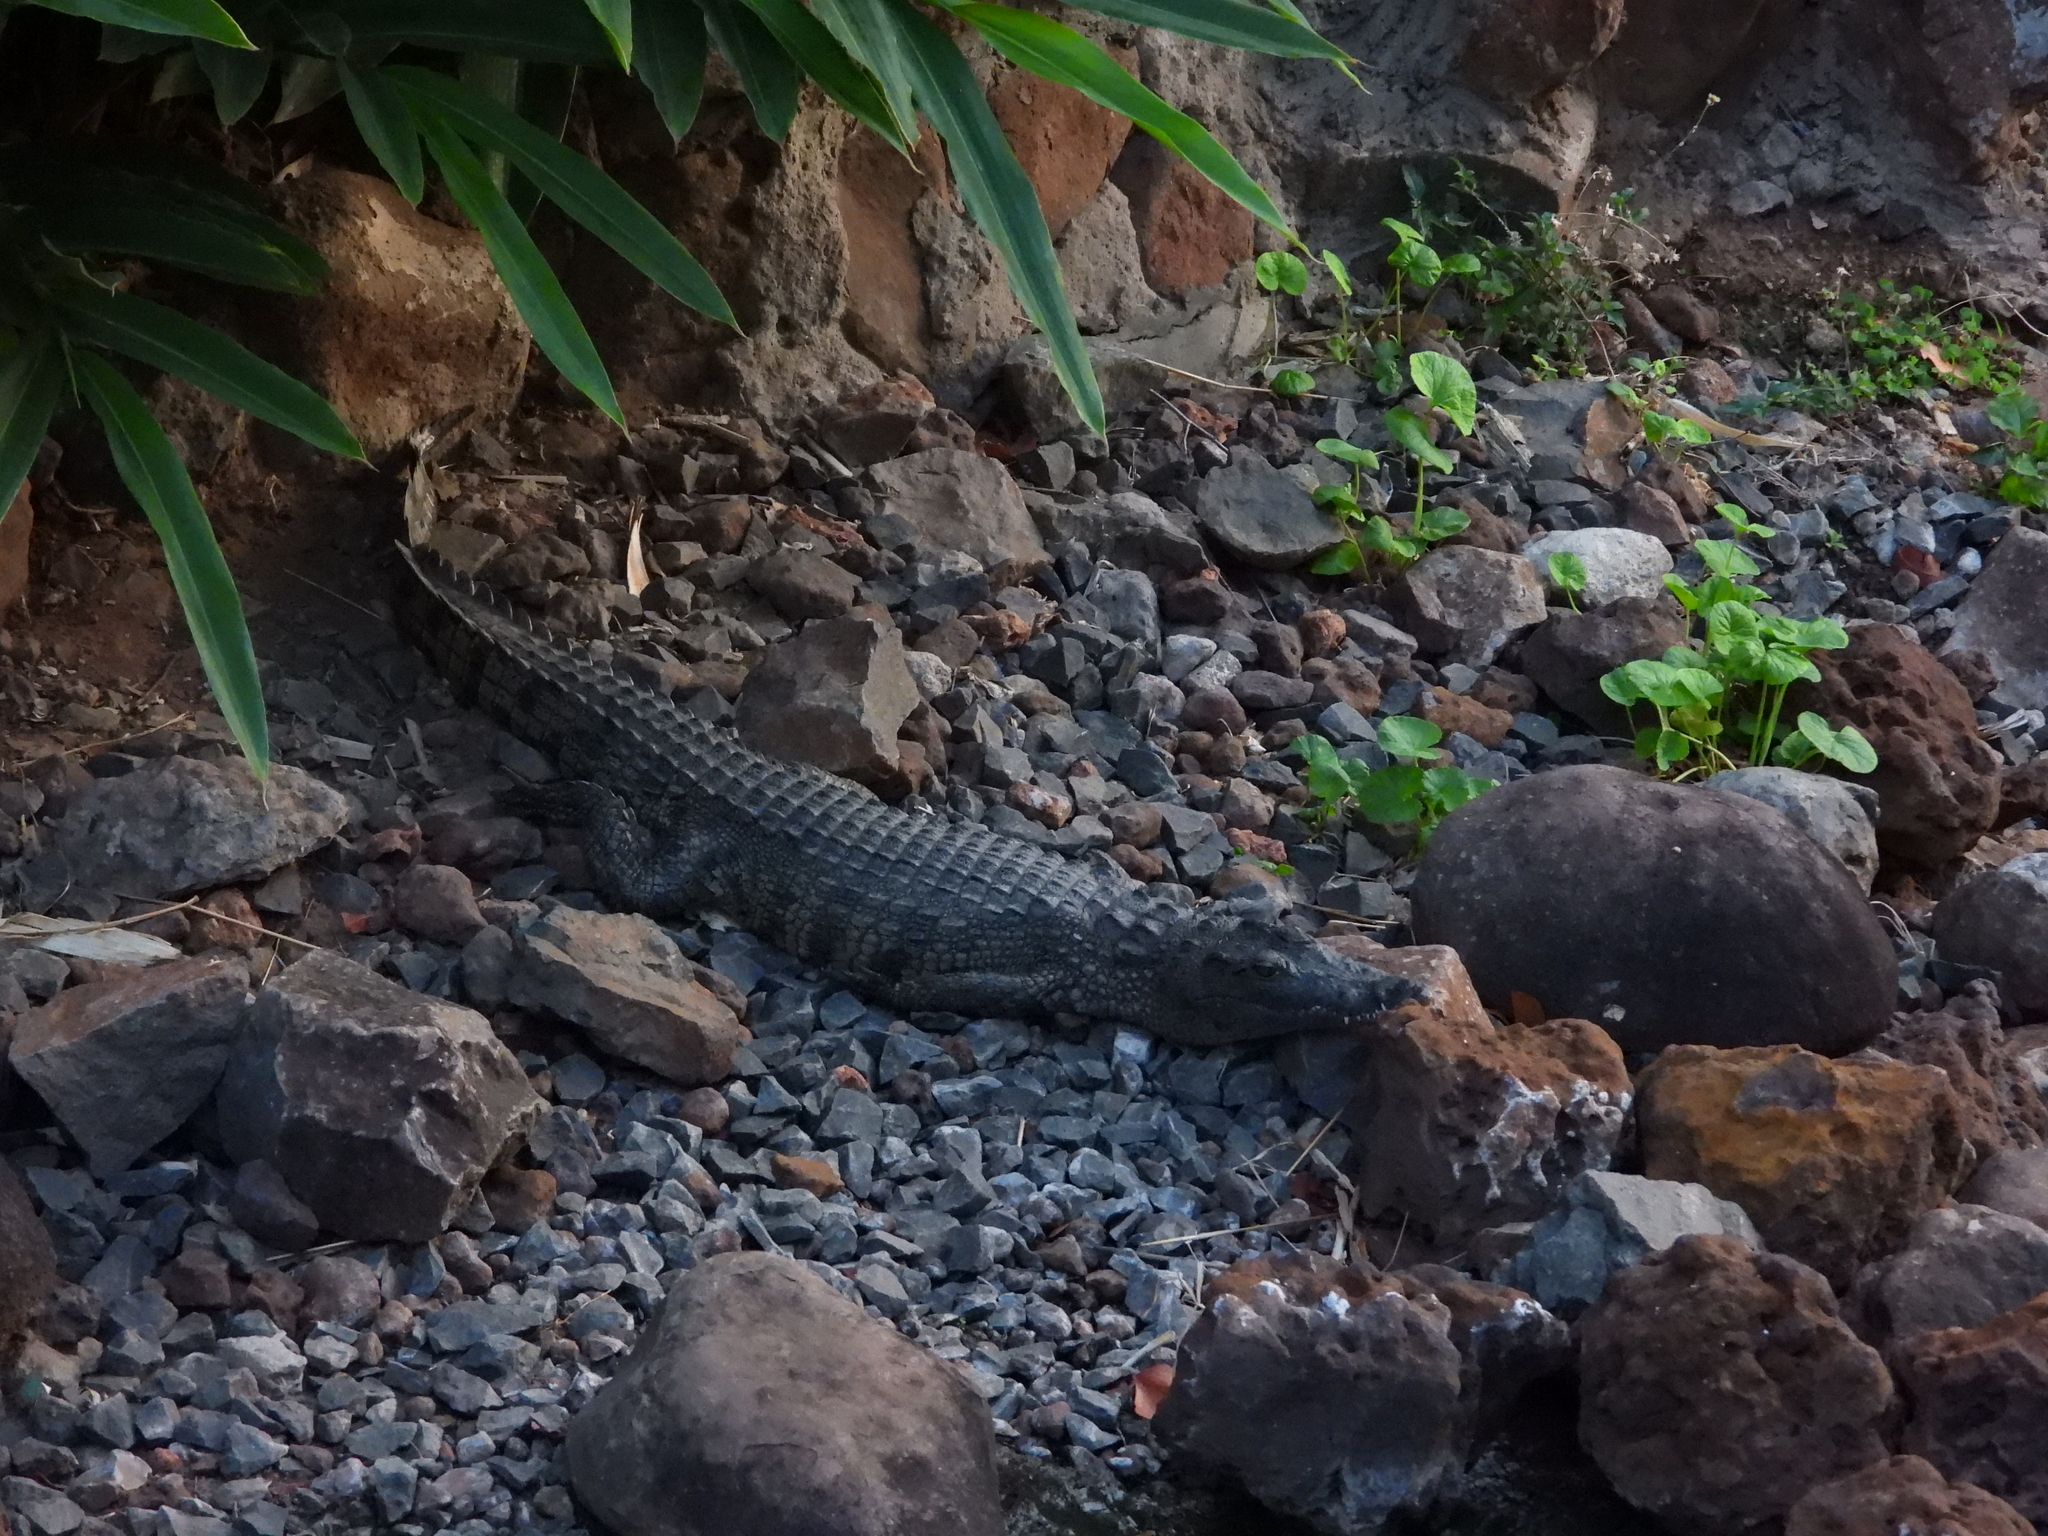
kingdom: Animalia
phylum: Chordata
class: Crocodylia
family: Crocodylidae
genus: Crocodylus
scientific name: Crocodylus niloticus
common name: Nile crocodile
